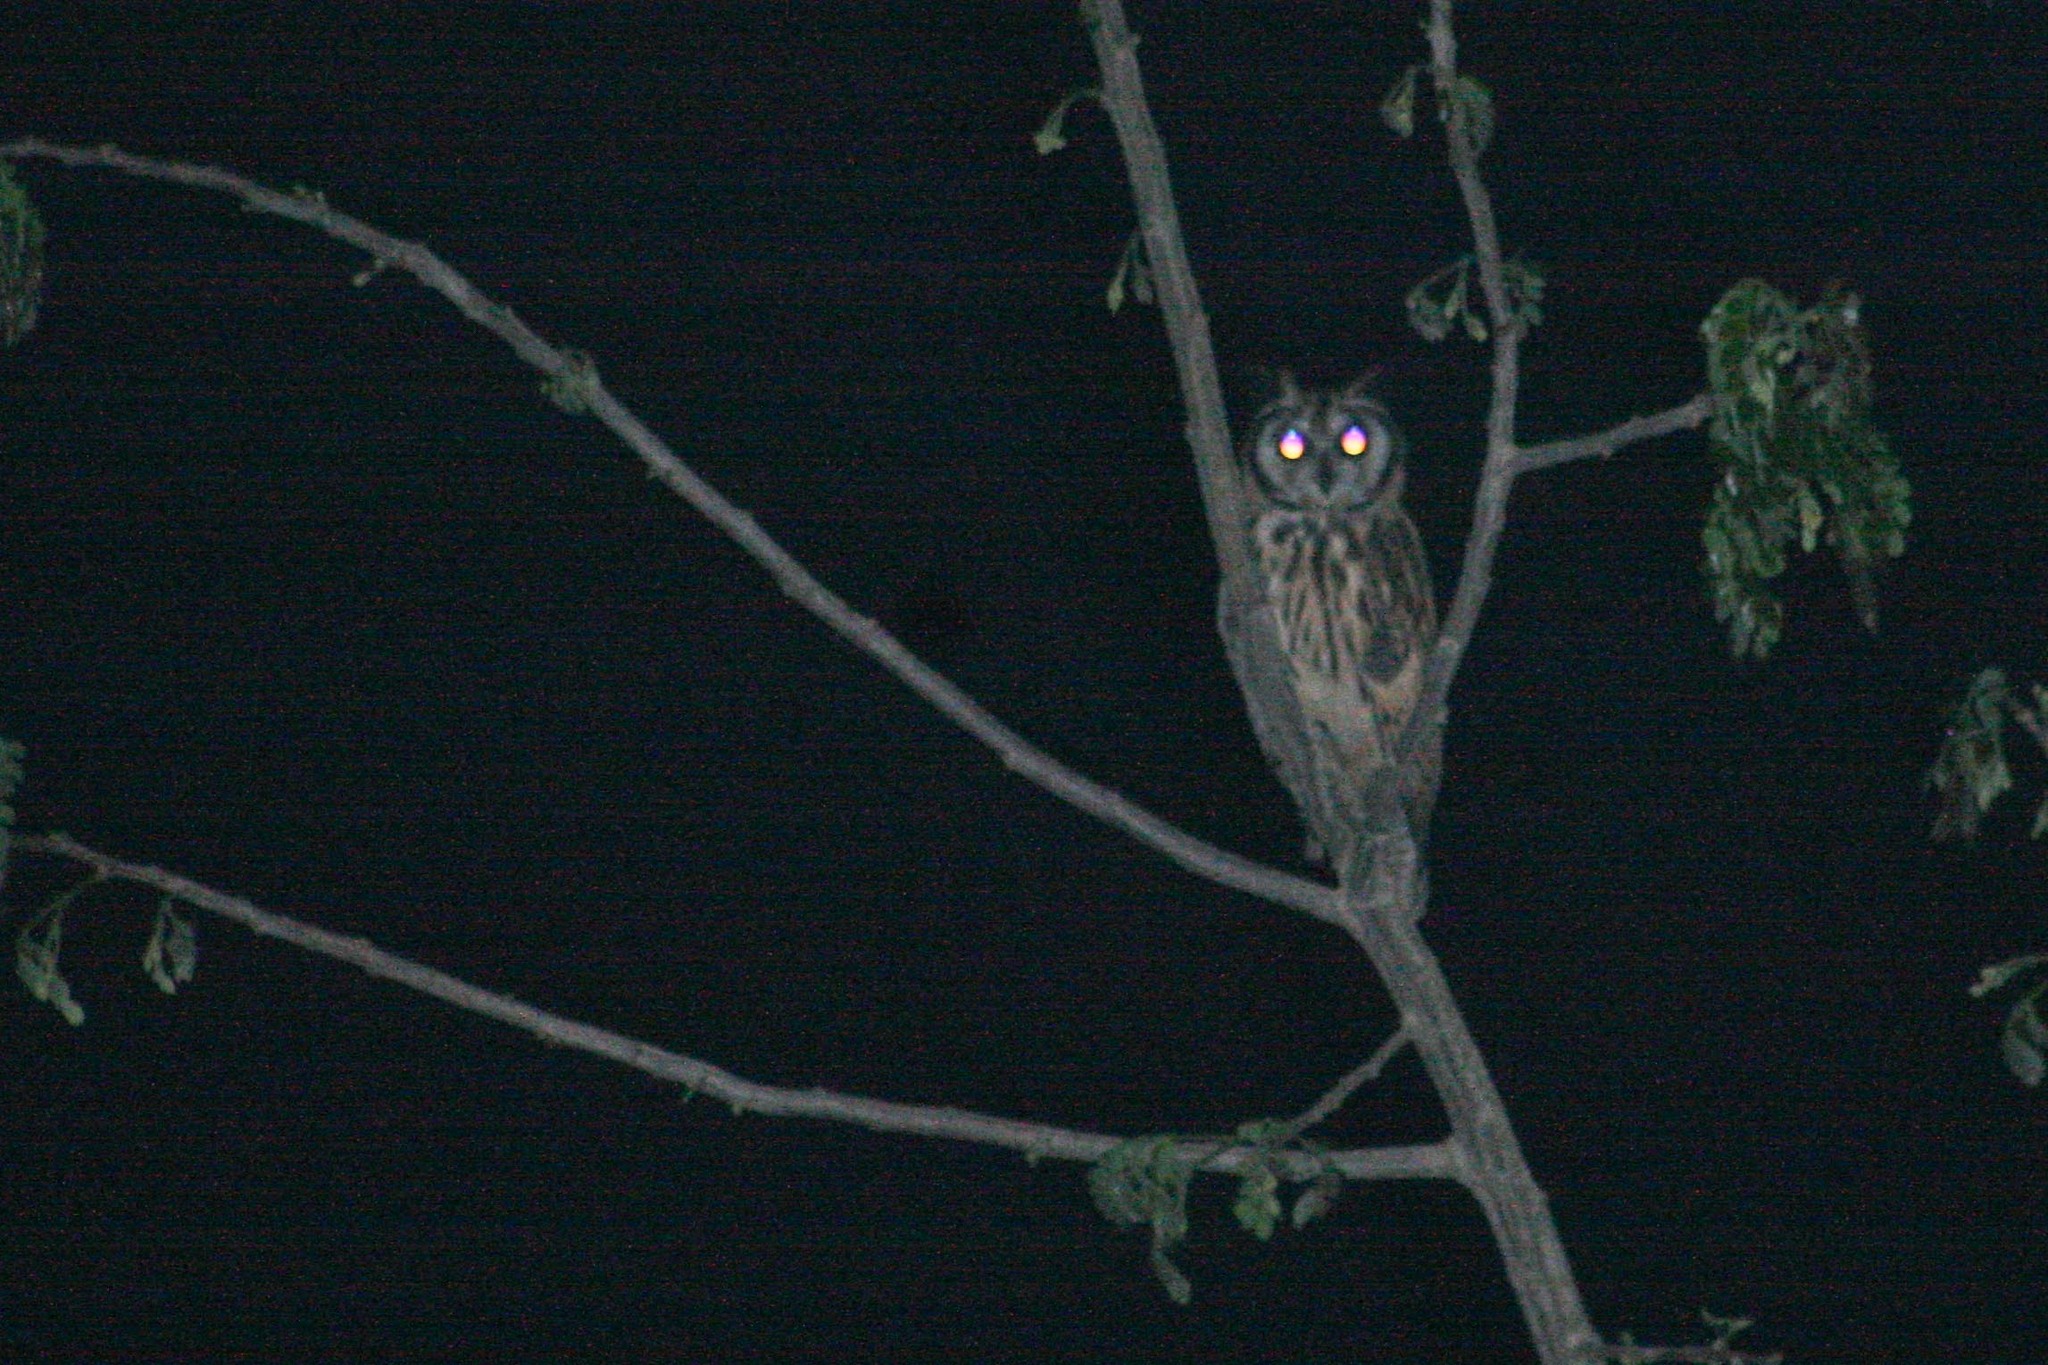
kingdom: Animalia
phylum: Chordata
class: Aves
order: Strigiformes
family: Strigidae
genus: Pseudoscops
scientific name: Pseudoscops clamator
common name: Striped owl
